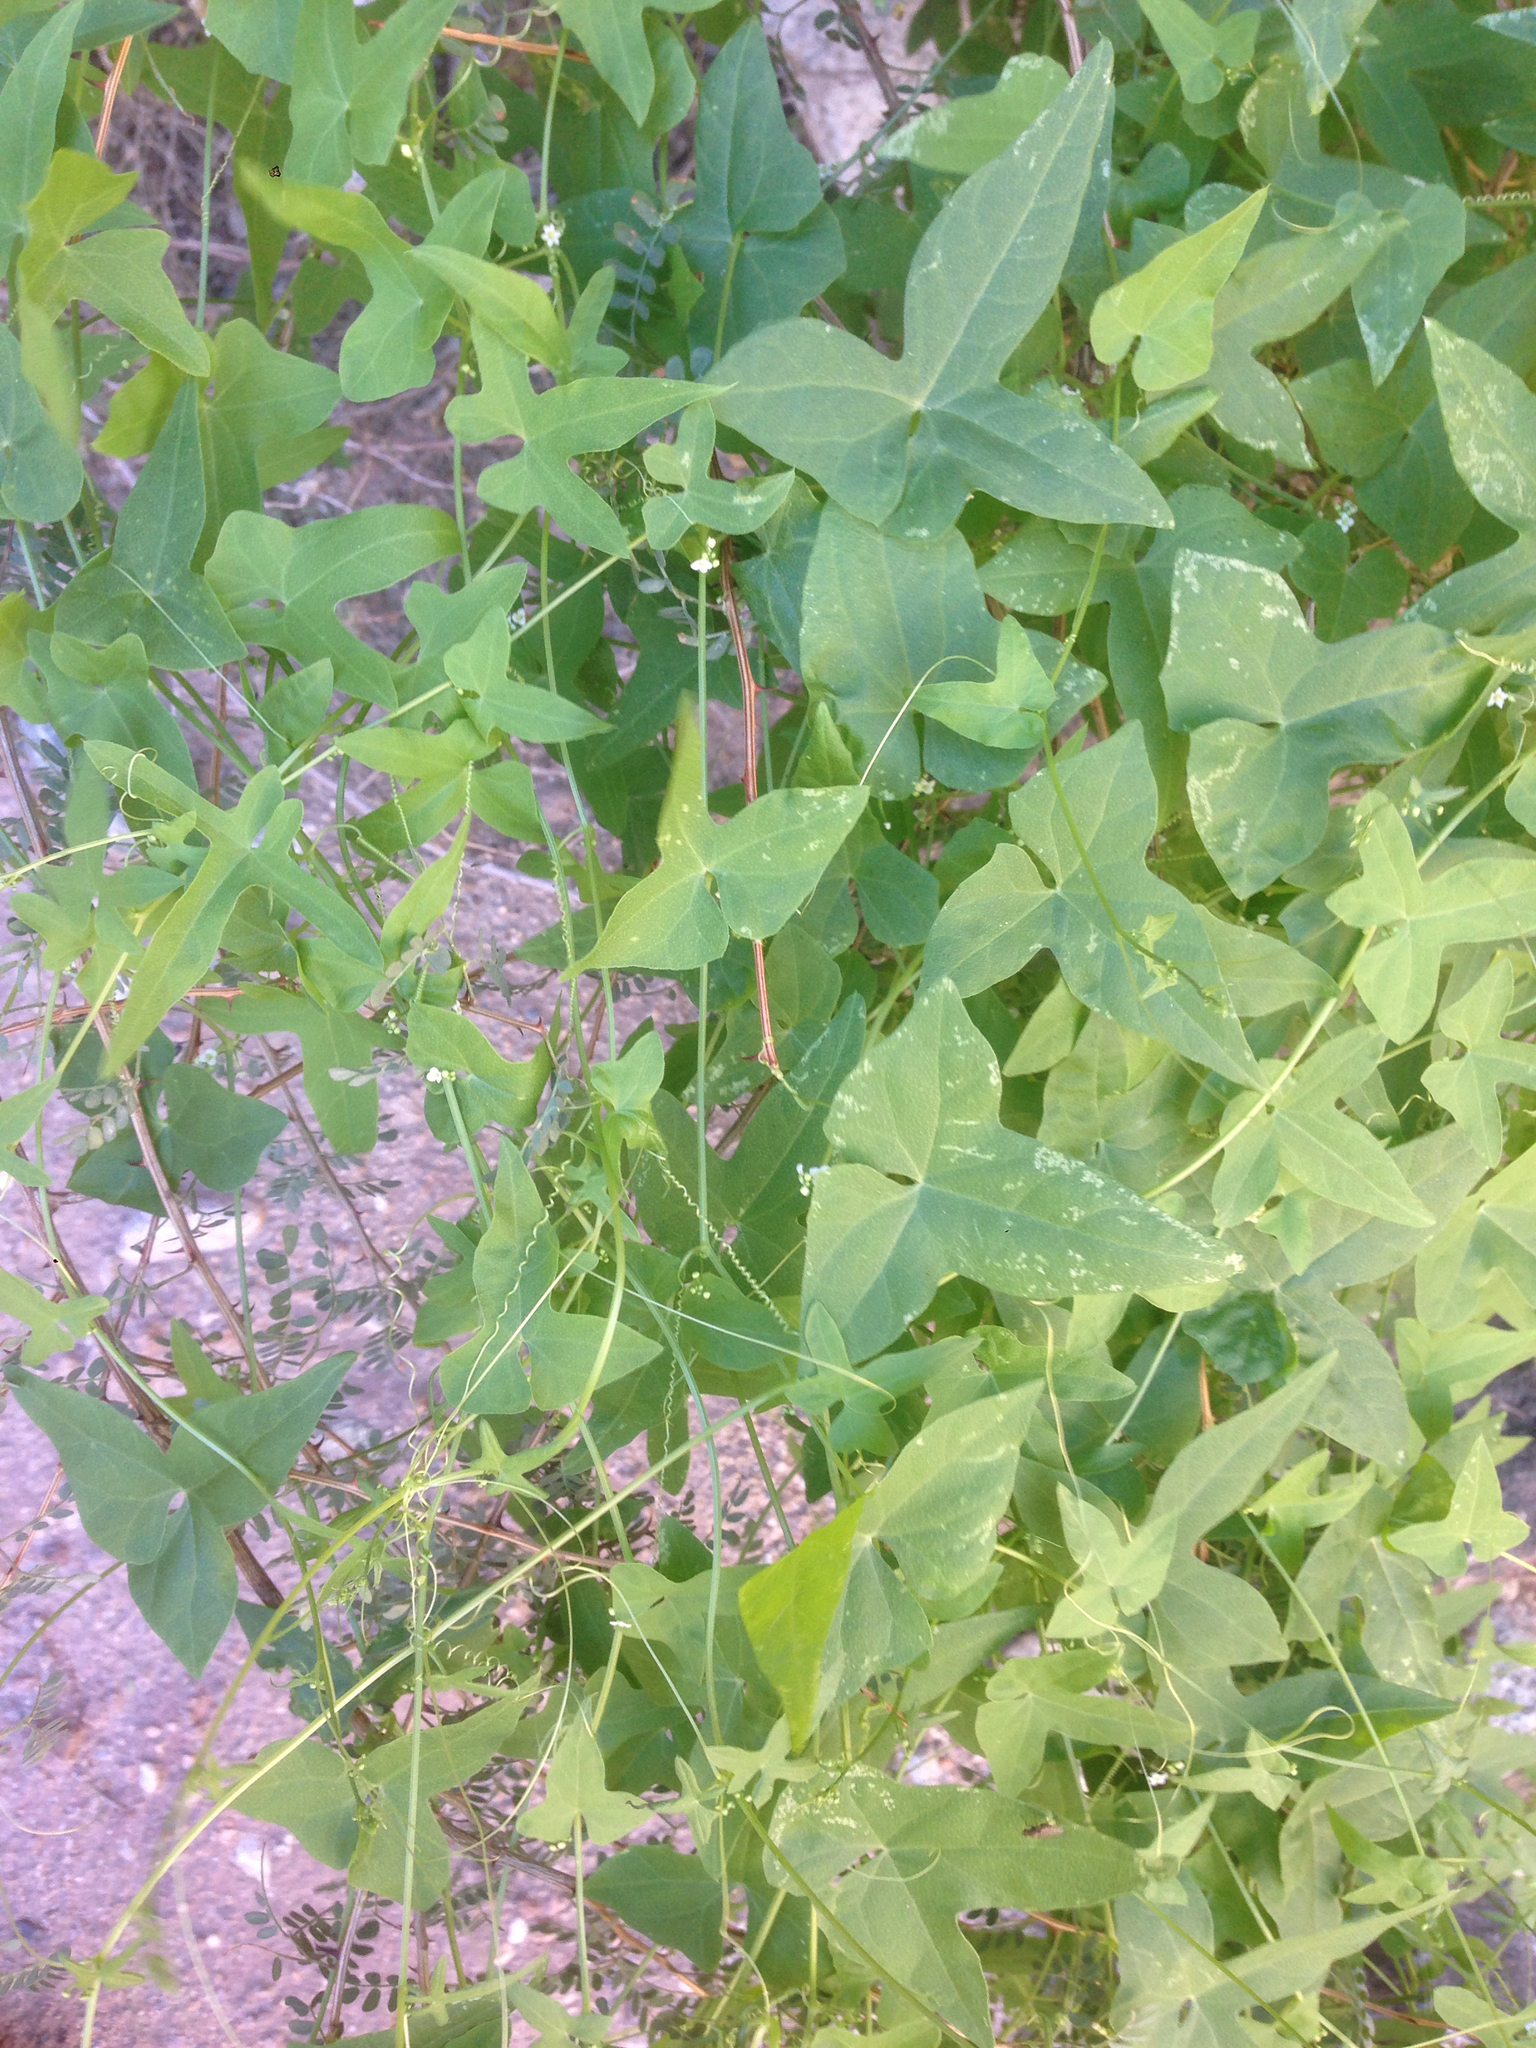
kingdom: Plantae
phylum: Tracheophyta
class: Magnoliopsida
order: Cucurbitales
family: Cucurbitaceae
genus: Echinopepon
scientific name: Echinopepon bigelovii
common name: Desert starvine
